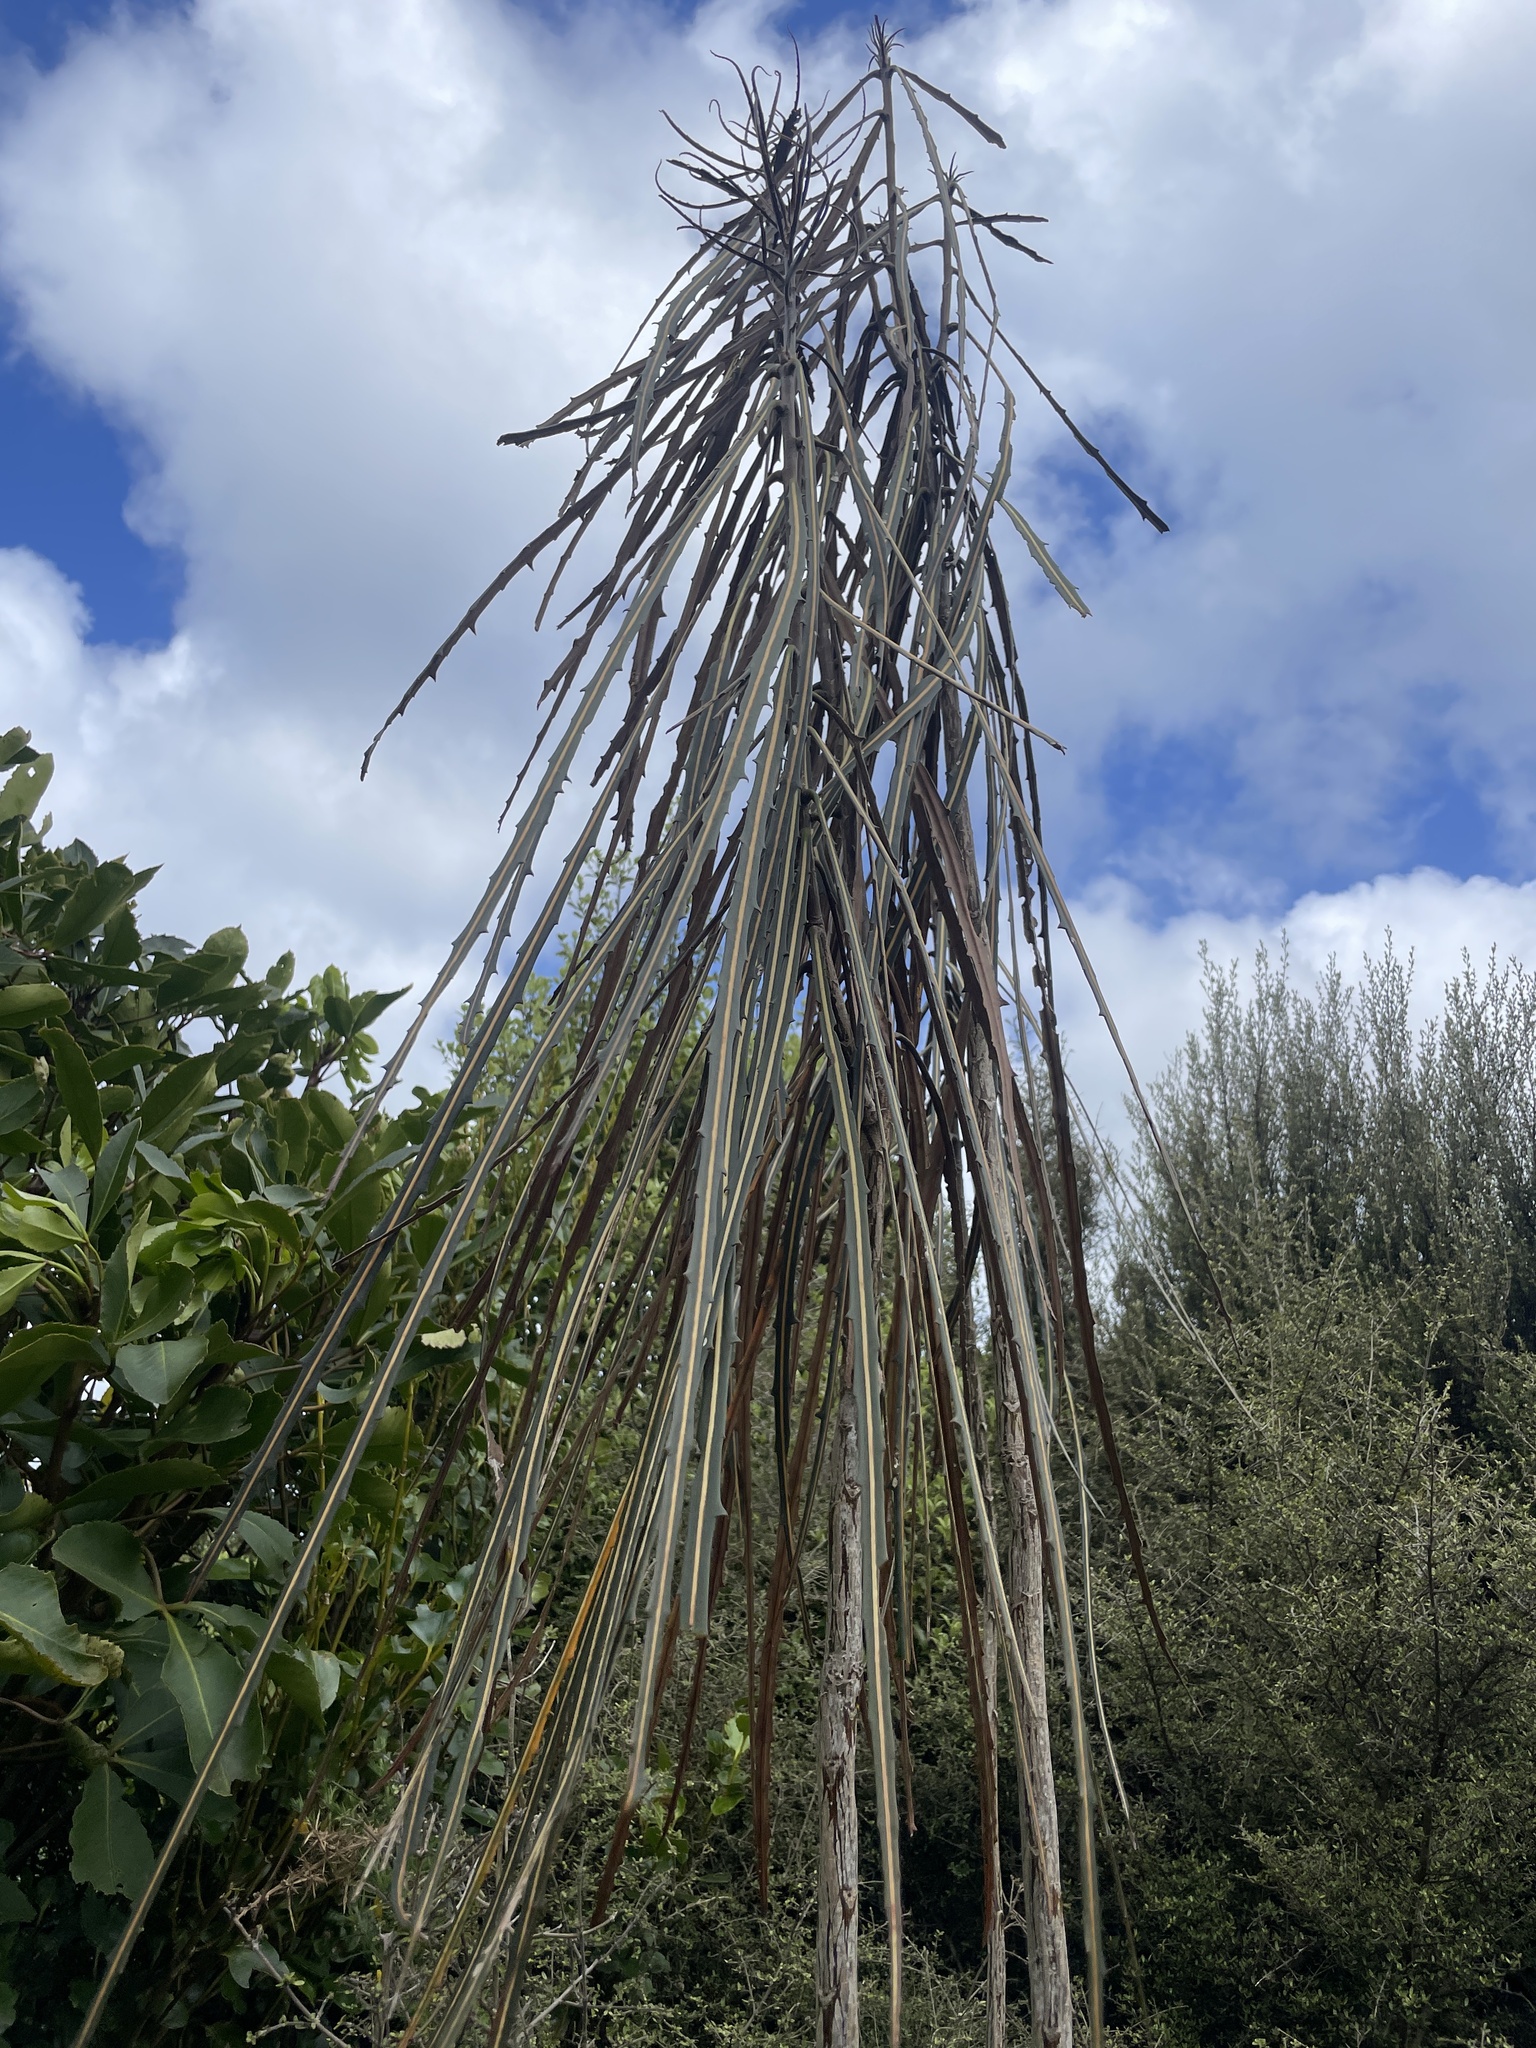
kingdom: Plantae
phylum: Tracheophyta
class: Magnoliopsida
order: Apiales
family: Araliaceae
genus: Pseudopanax
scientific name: Pseudopanax crassifolius
